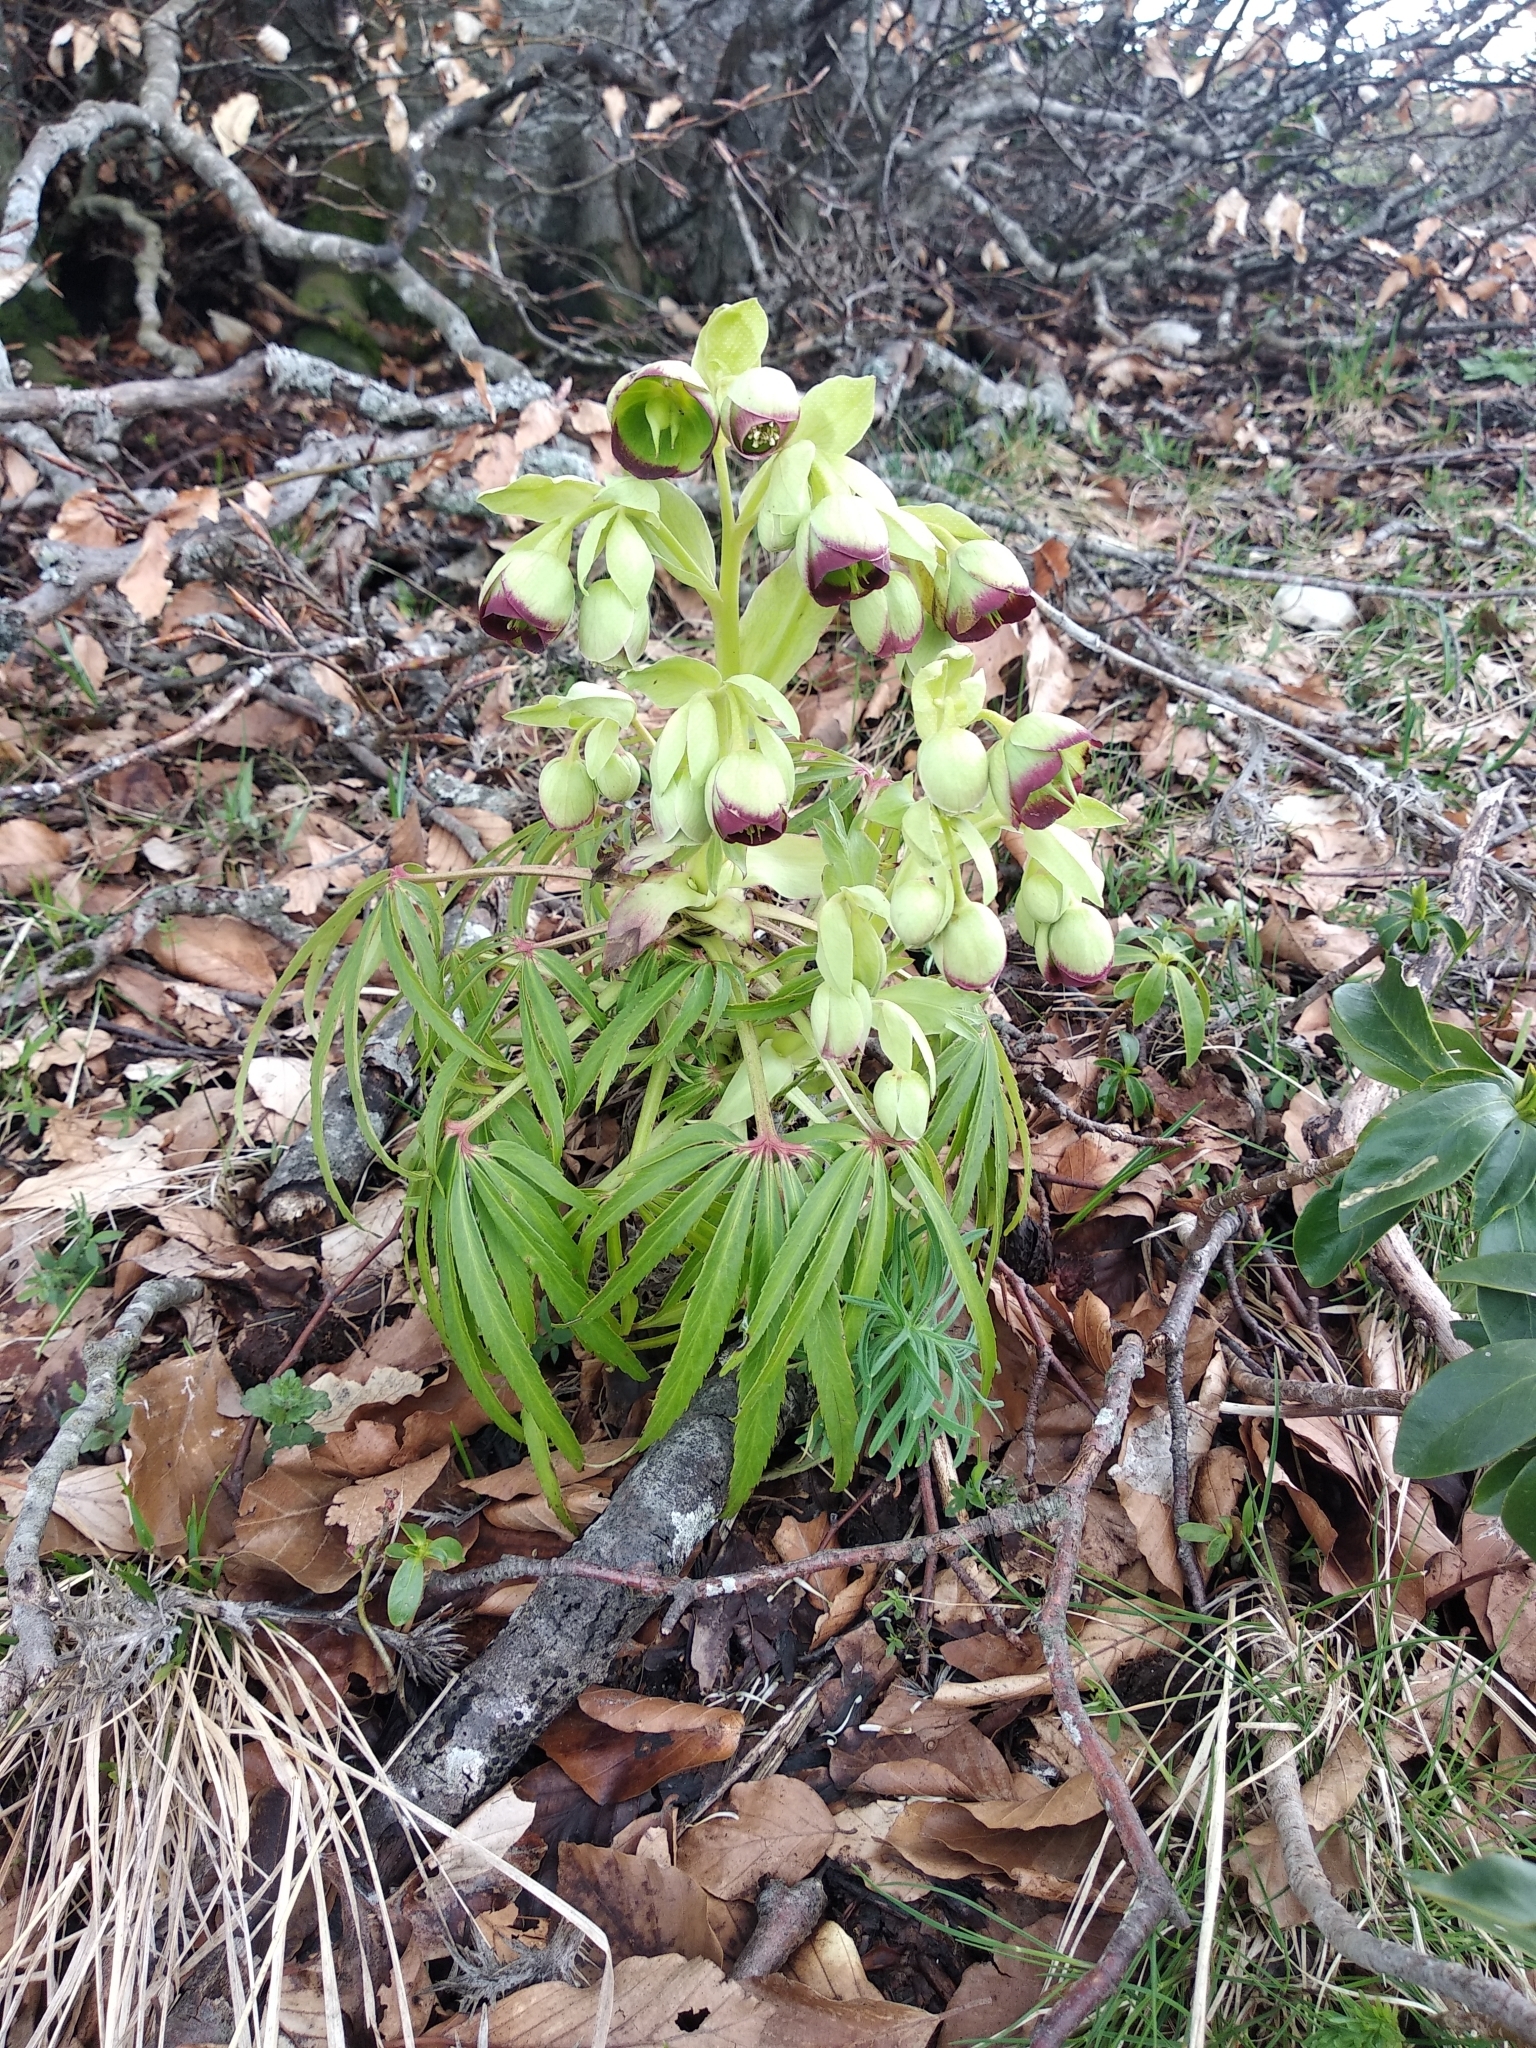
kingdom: Plantae
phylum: Tracheophyta
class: Magnoliopsida
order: Ranunculales
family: Ranunculaceae
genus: Helleborus
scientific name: Helleborus foetidus
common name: Stinking hellebore
